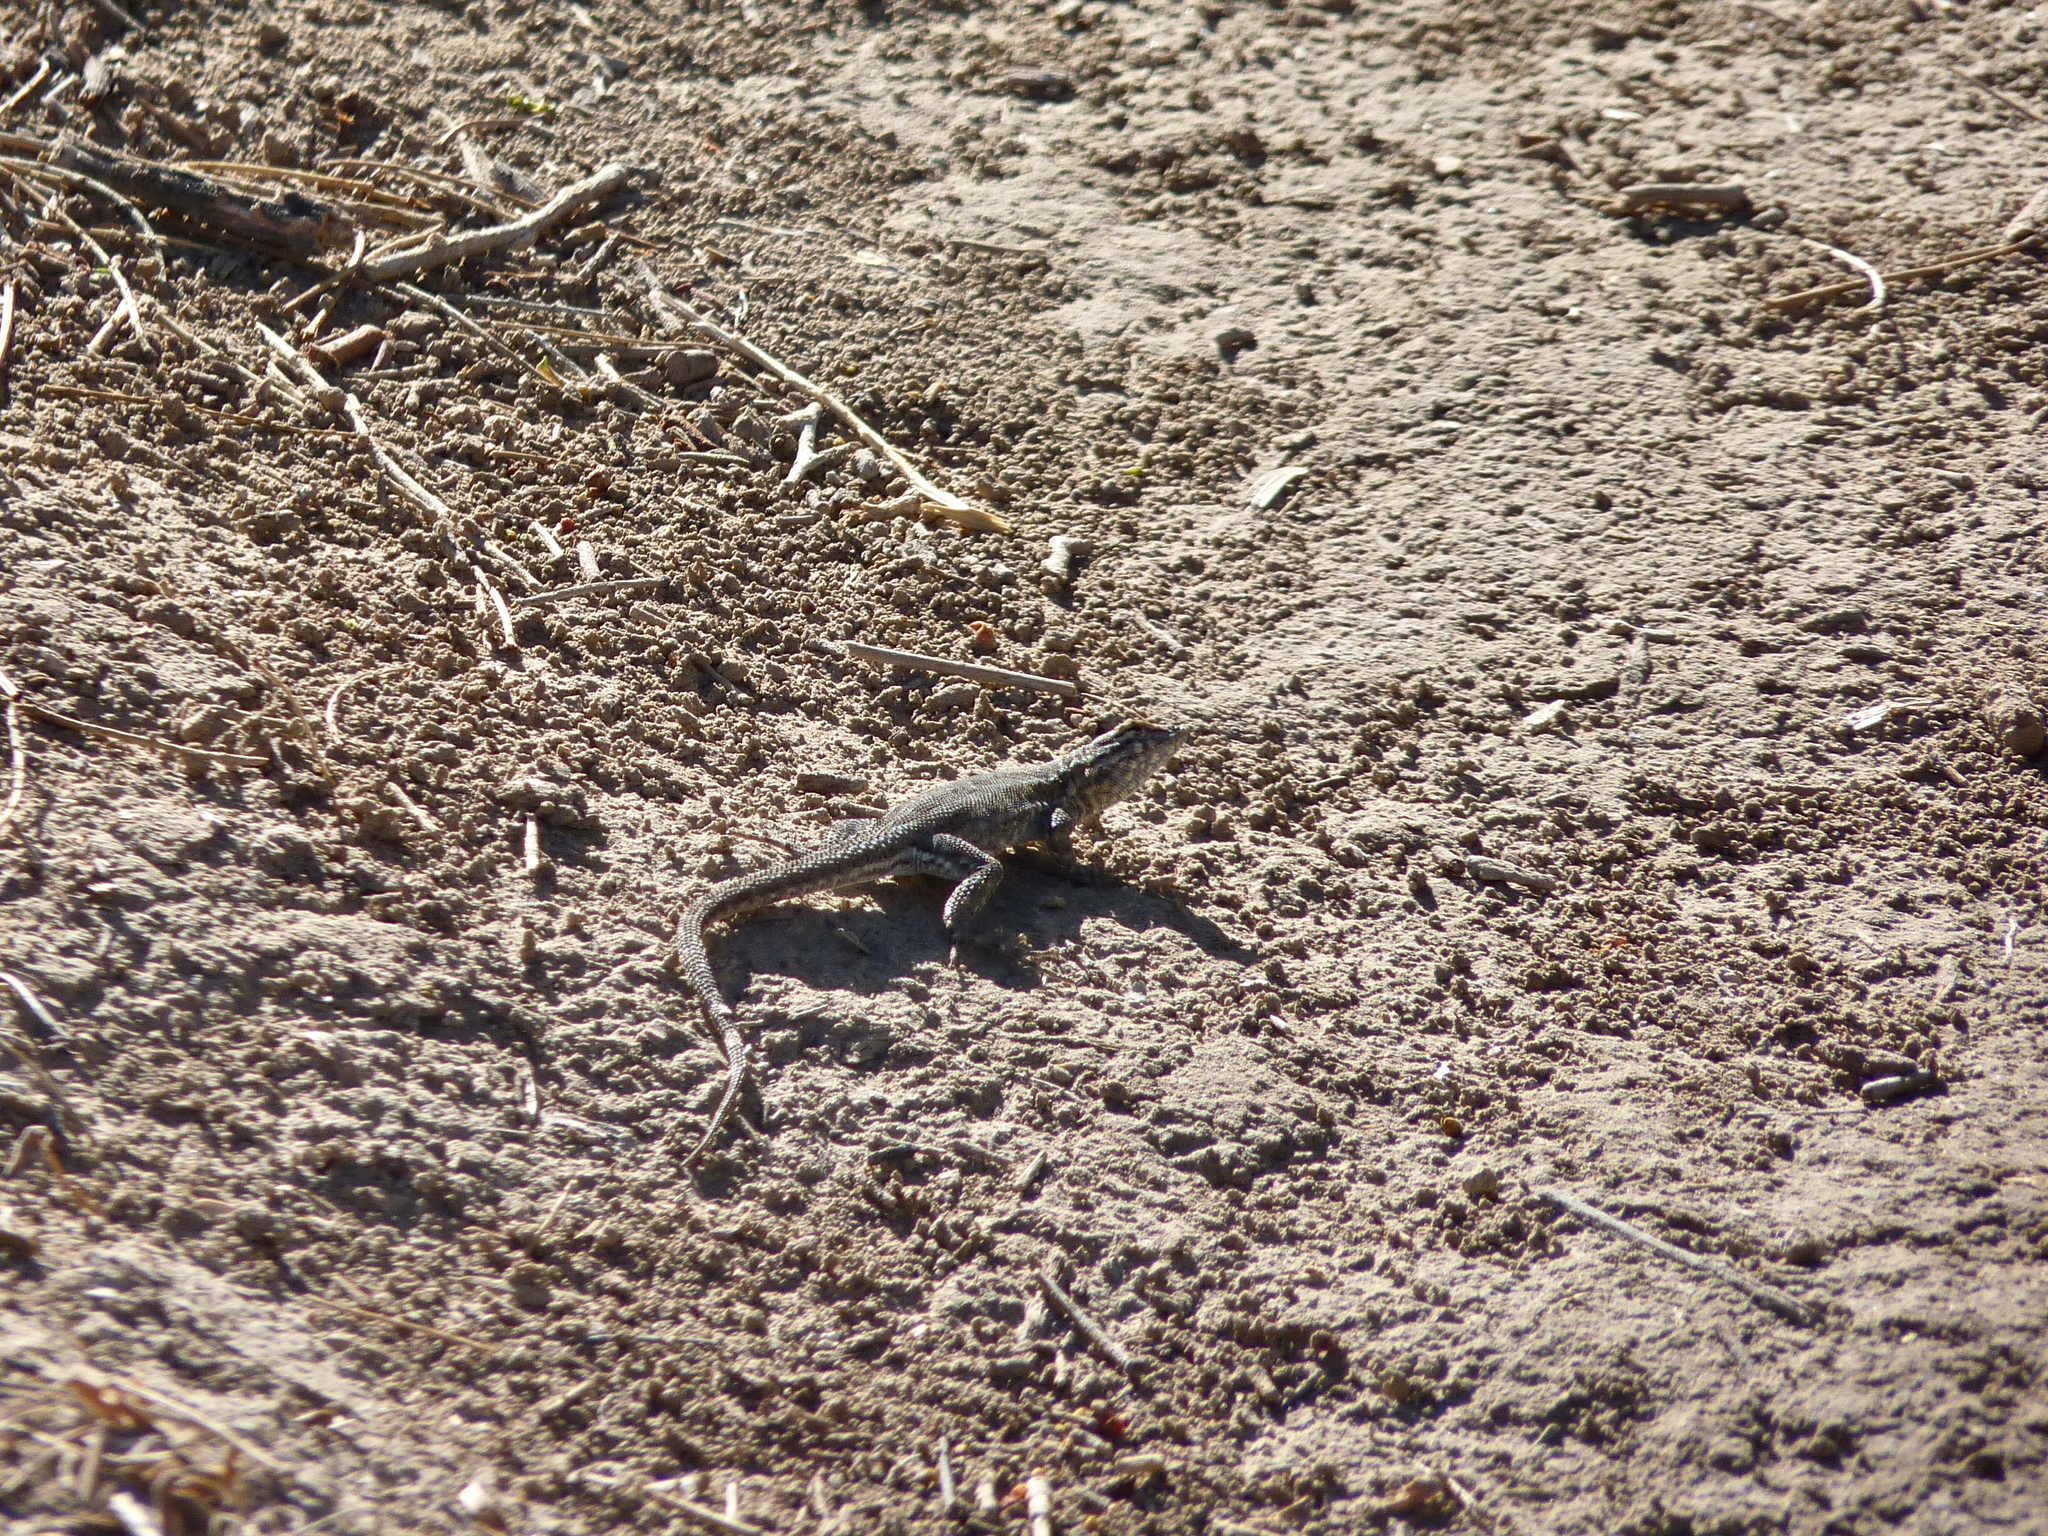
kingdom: Animalia
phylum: Chordata
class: Squamata
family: Phrynosomatidae
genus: Uta
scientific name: Uta stansburiana
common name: Side-blotched lizard
